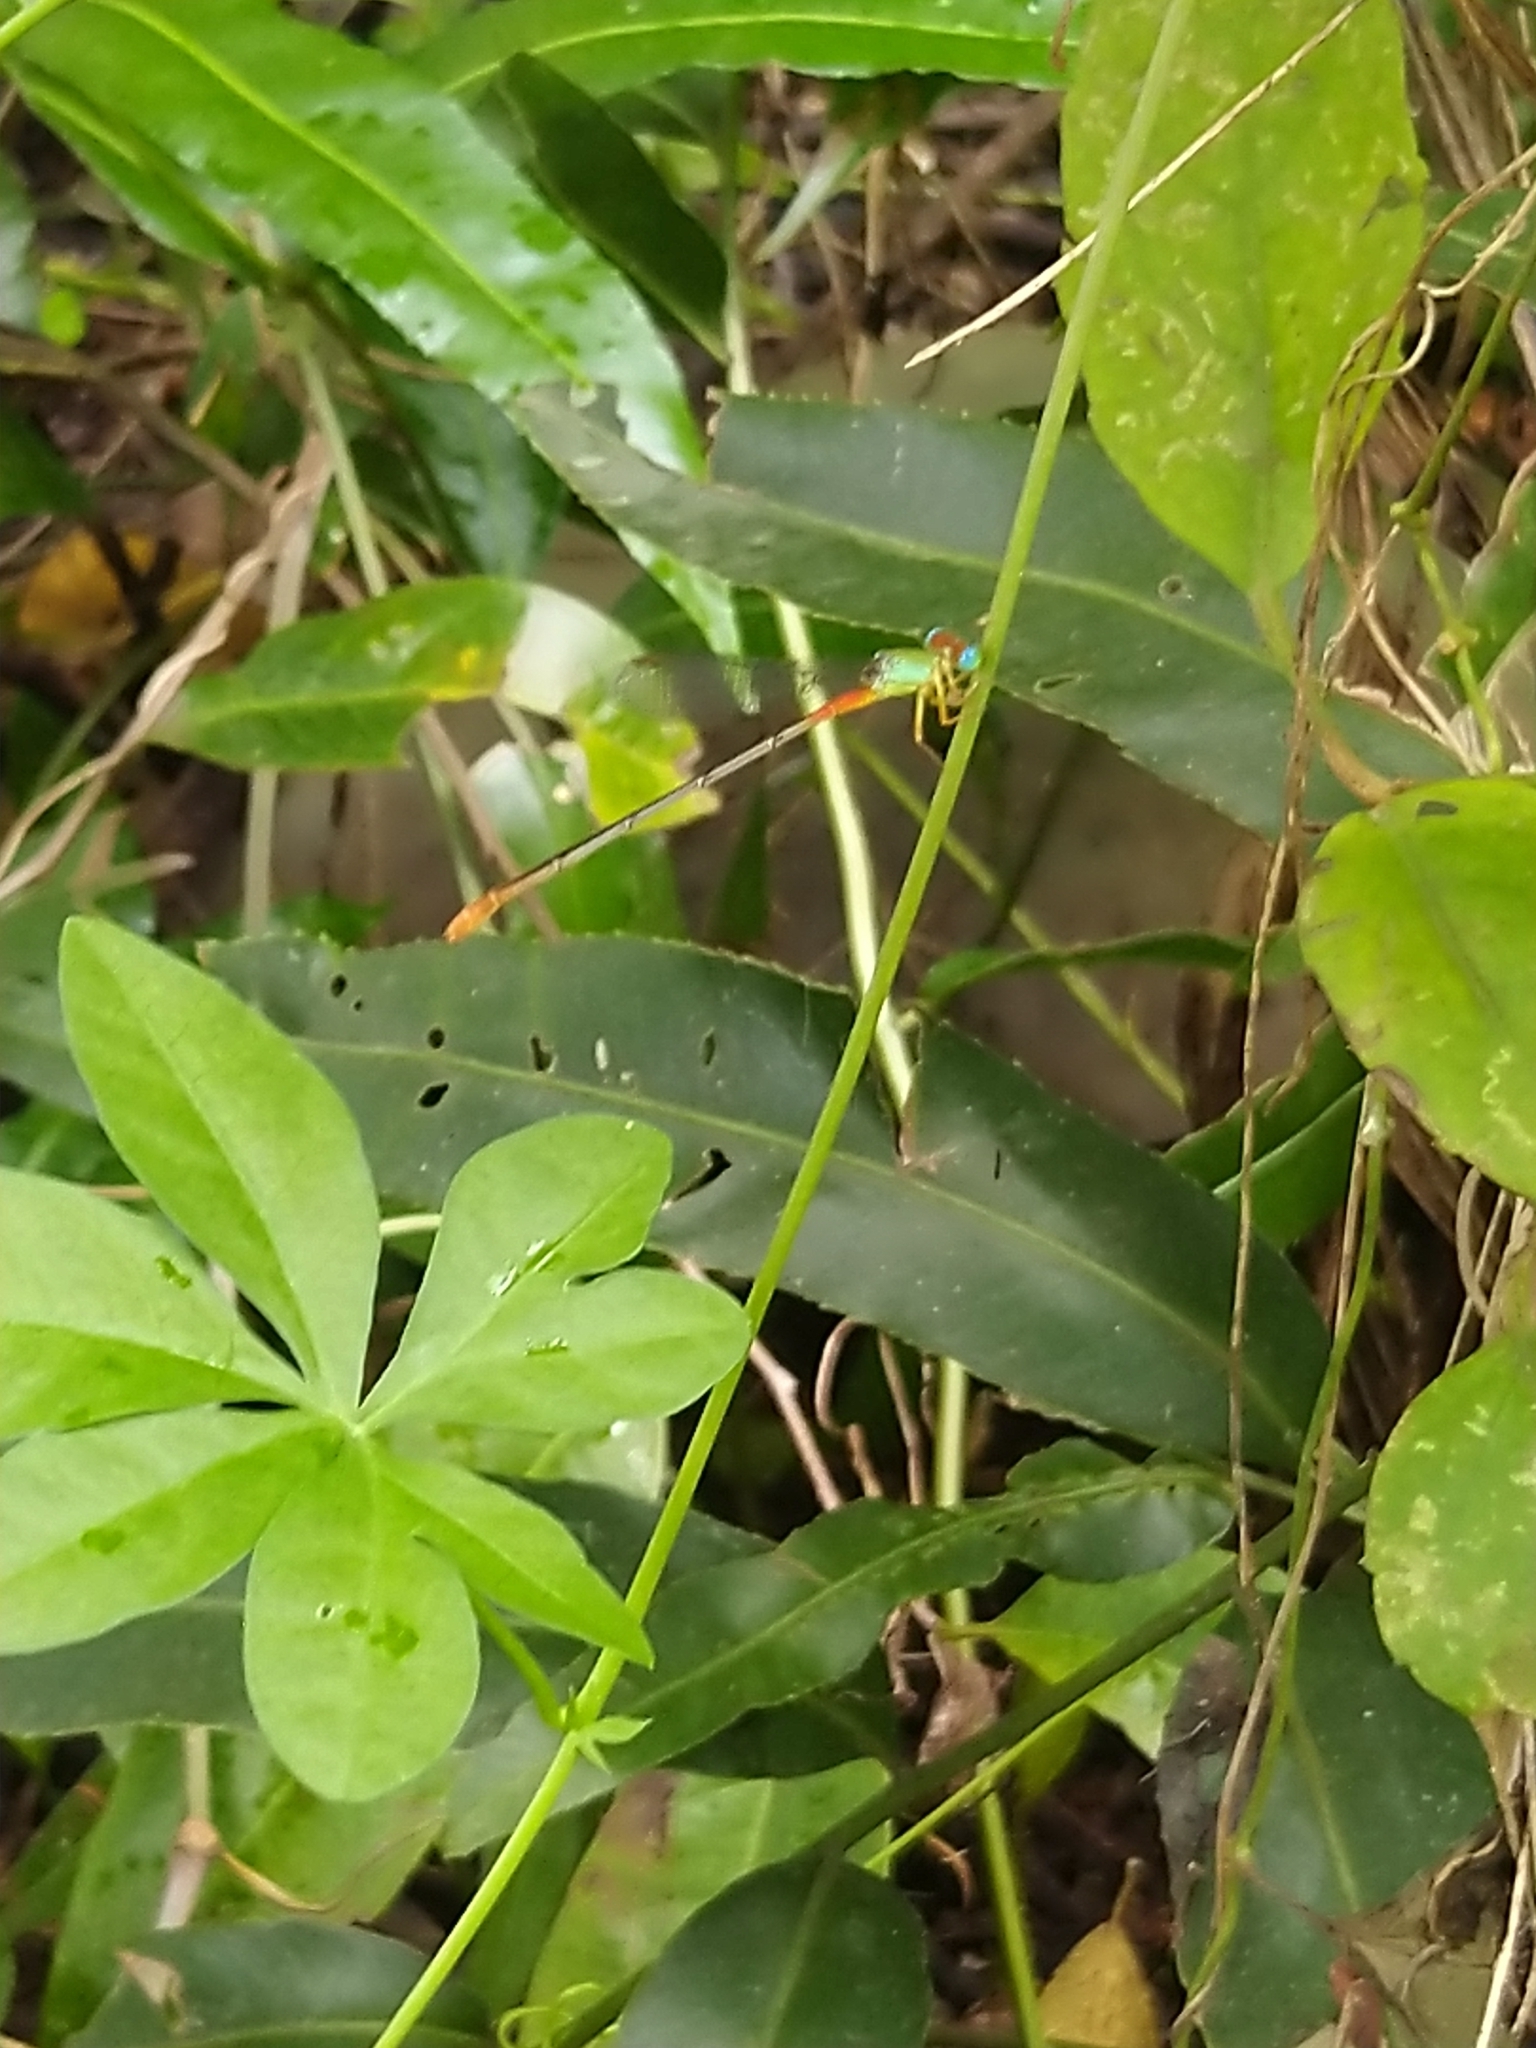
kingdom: Animalia
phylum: Arthropoda
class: Insecta
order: Odonata
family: Coenagrionidae
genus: Ceriagrion
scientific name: Ceriagrion cerinorubellum
